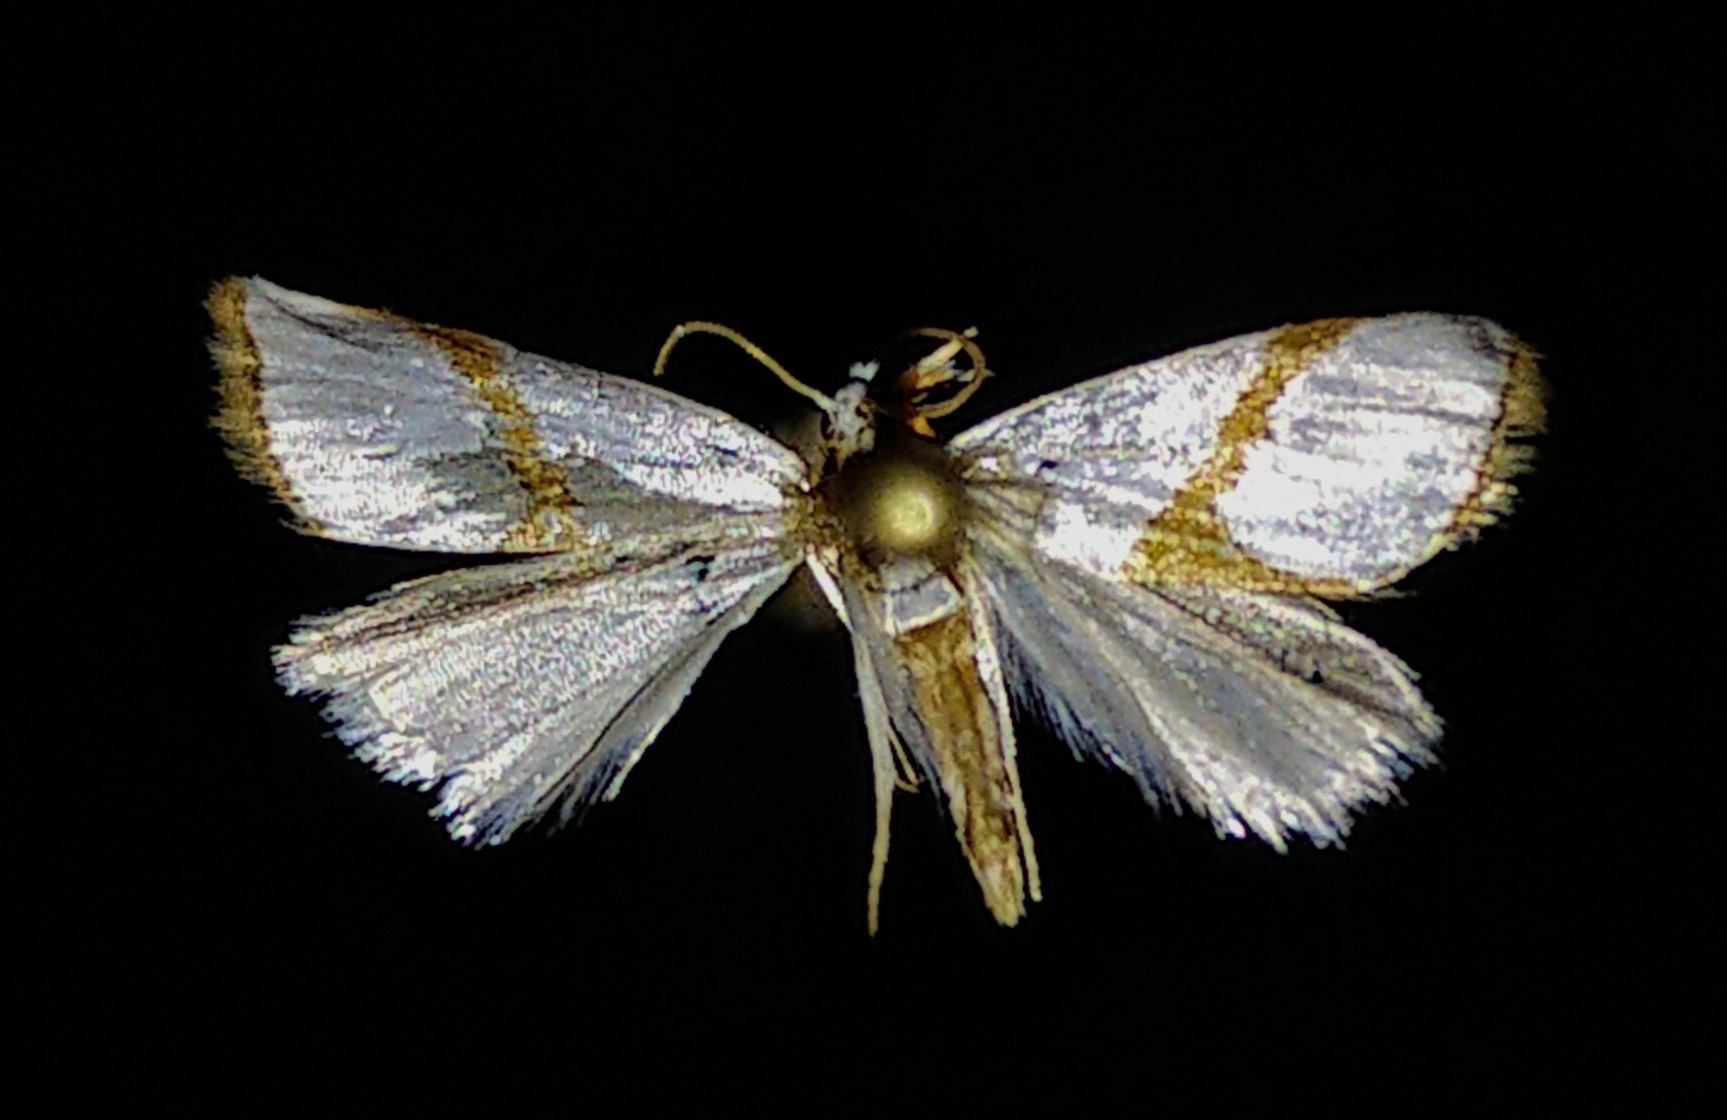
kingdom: Animalia
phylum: Arthropoda
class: Insecta
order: Lepidoptera
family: Crambidae
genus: Argyria
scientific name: Argyria auratella
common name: Curve-lined argyria moth
